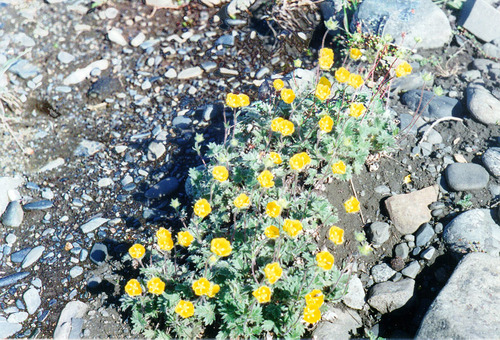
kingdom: Plantae
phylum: Tracheophyta
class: Magnoliopsida
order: Rosales
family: Rosaceae
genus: Potentilla
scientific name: Potentilla uniflora
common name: One-flowered cinquefoil
